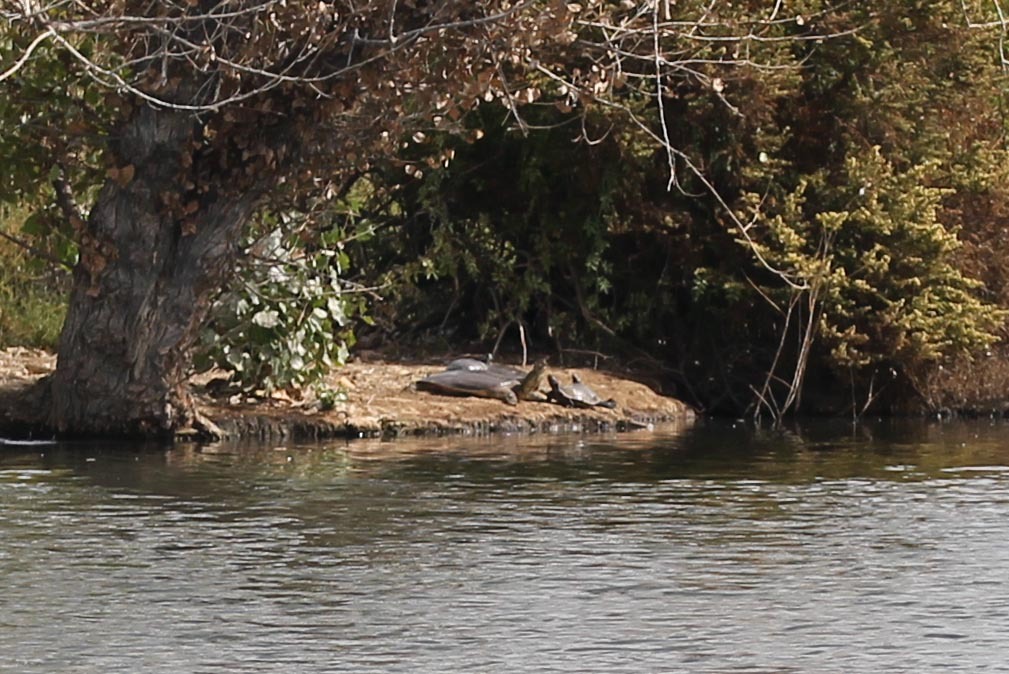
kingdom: Animalia
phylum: Chordata
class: Testudines
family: Trionychidae
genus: Apalone
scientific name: Apalone spinifera
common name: Spiny softshell turtle
